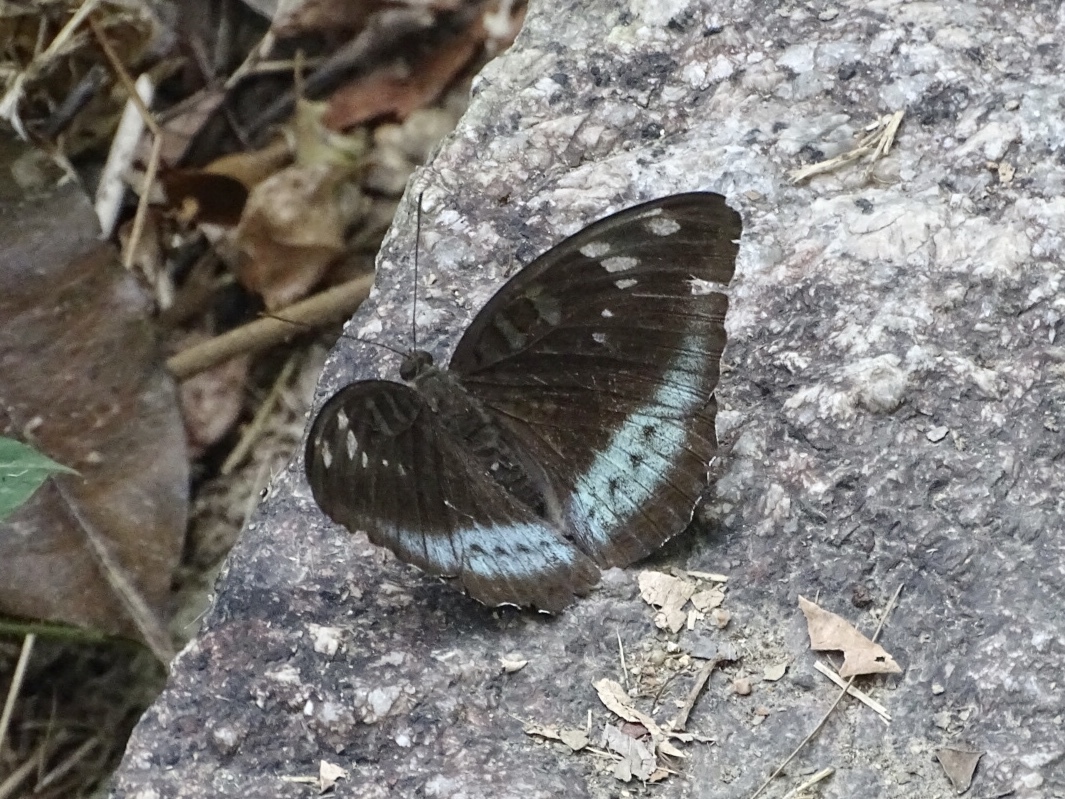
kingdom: Animalia
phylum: Arthropoda
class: Insecta
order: Lepidoptera
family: Nymphalidae
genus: Tanaecia
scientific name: Tanaecia
